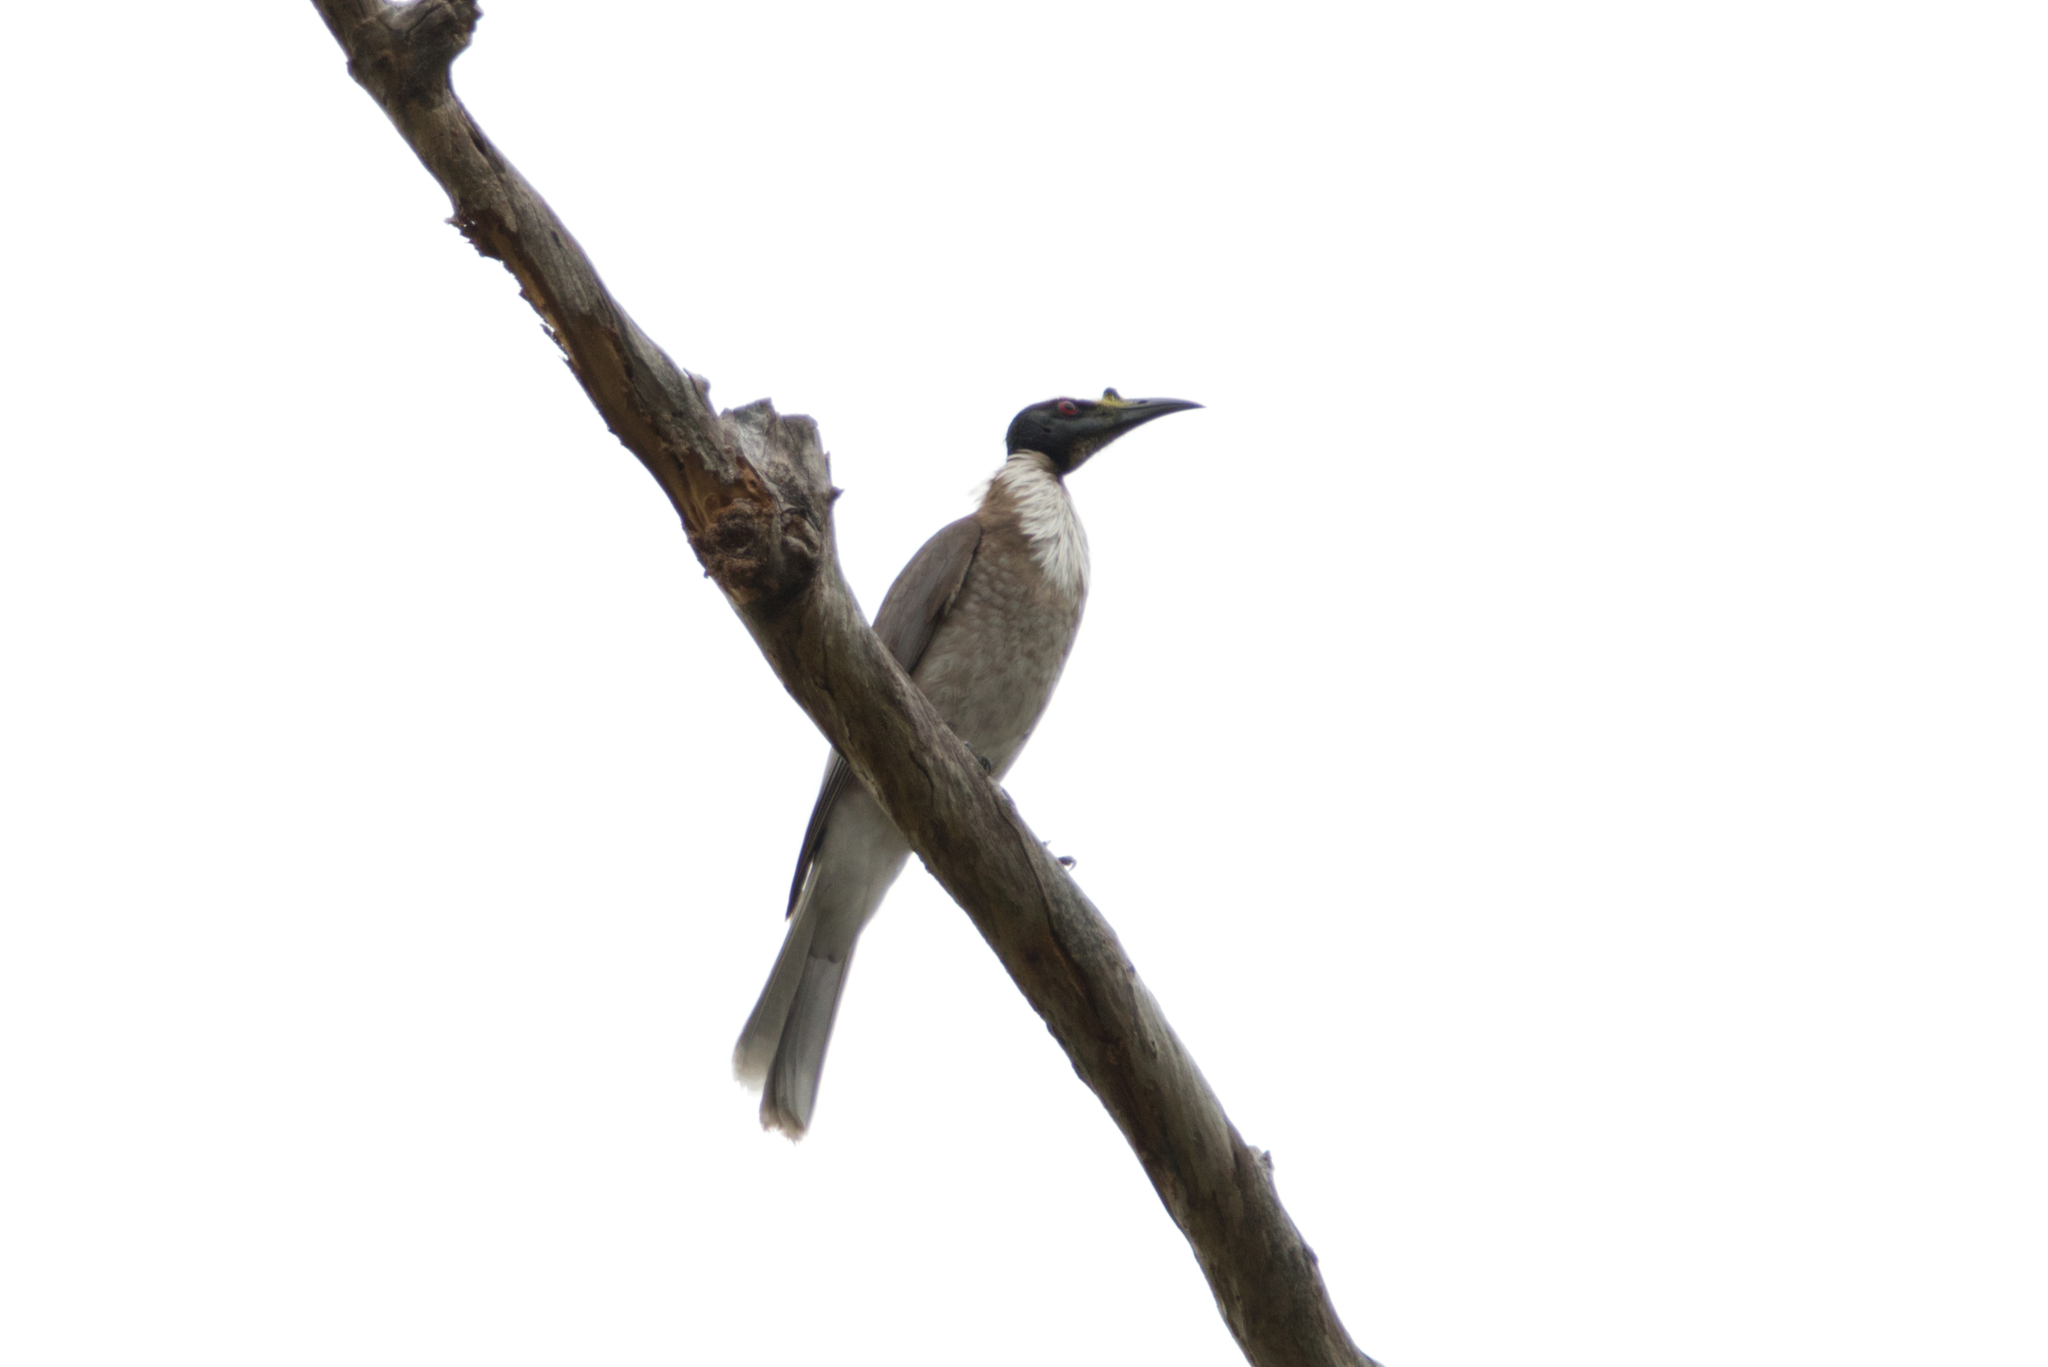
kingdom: Animalia
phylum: Chordata
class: Aves
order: Passeriformes
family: Meliphagidae
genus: Philemon
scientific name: Philemon corniculatus
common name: Noisy friarbird
